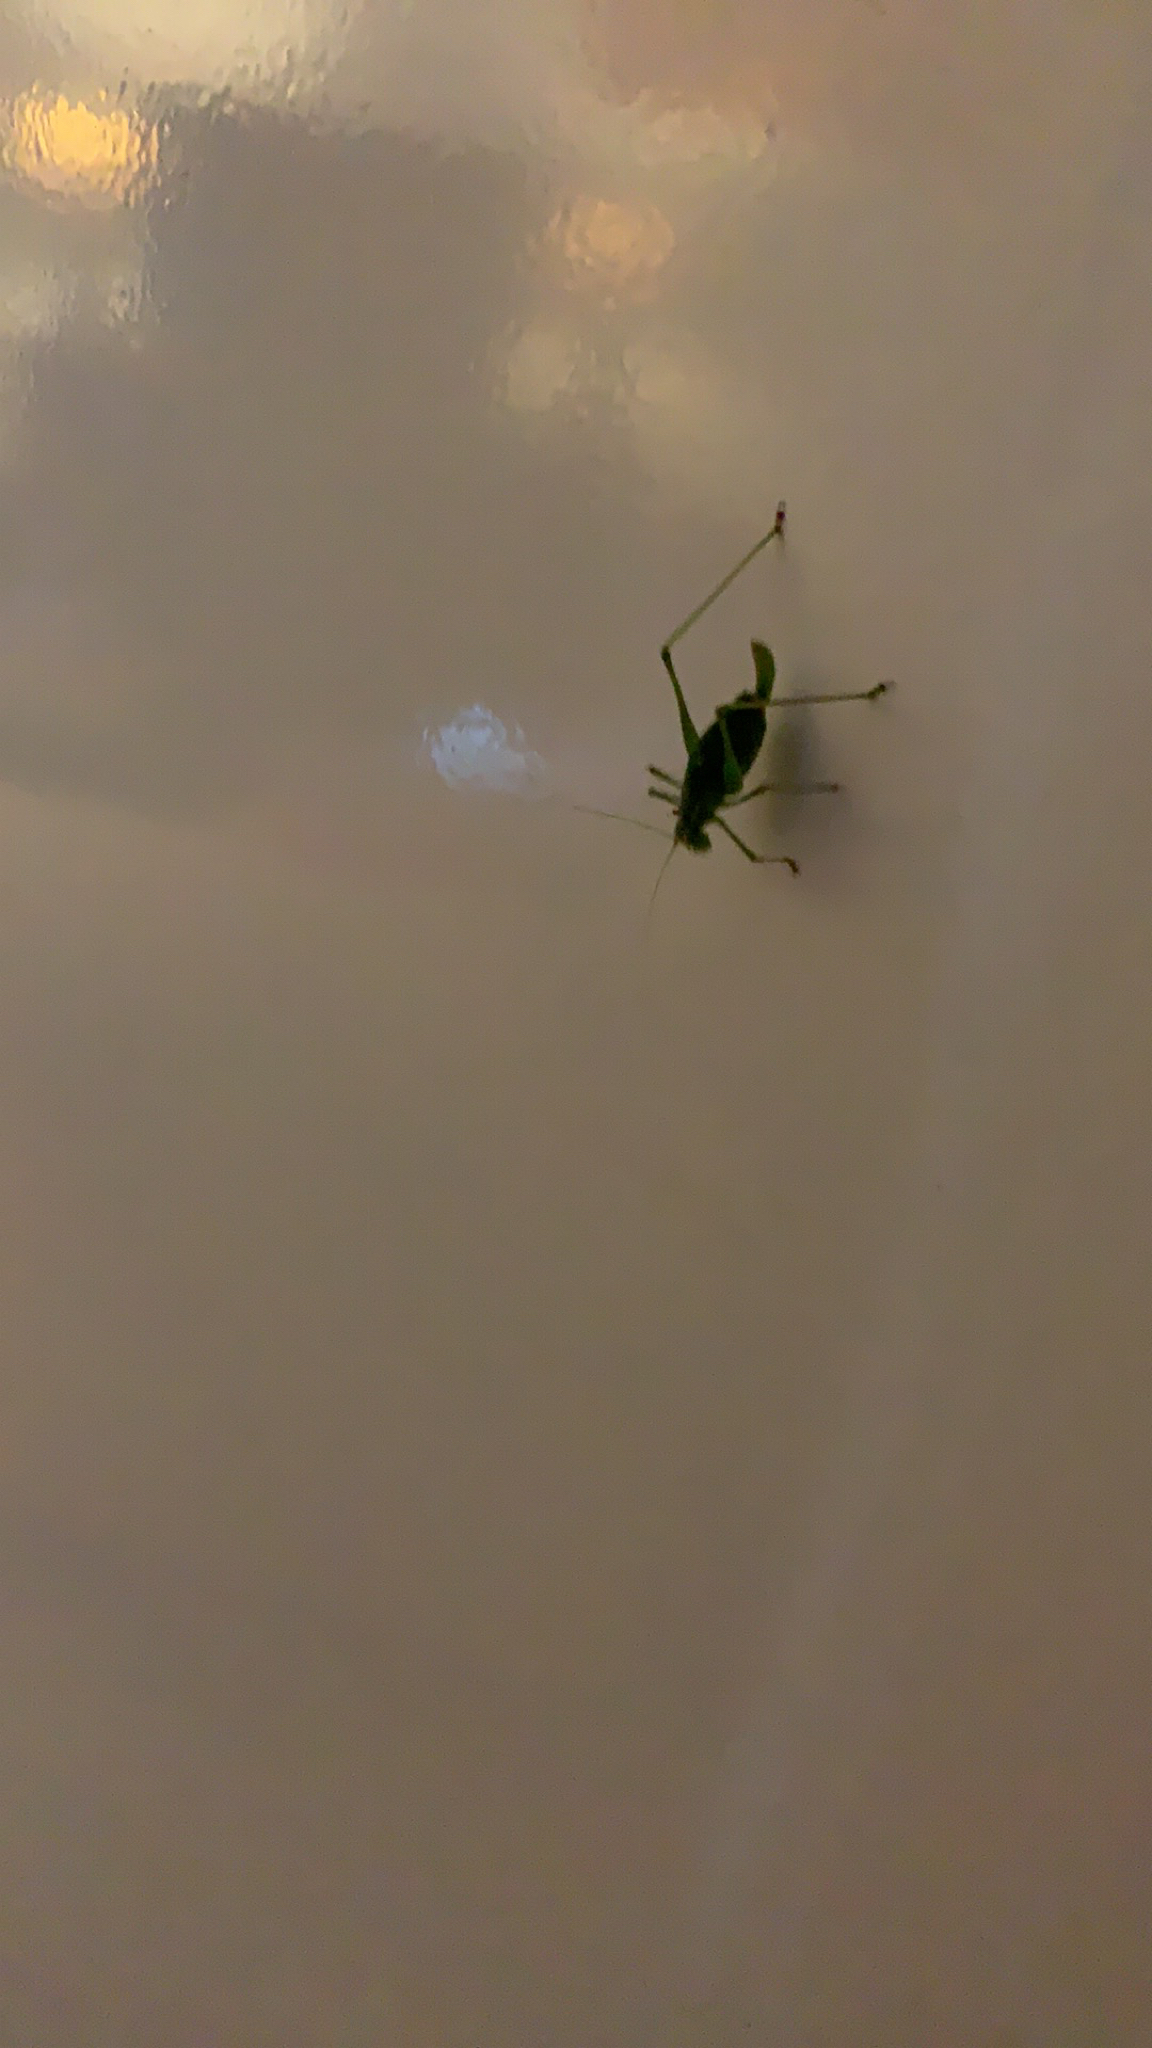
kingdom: Animalia
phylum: Arthropoda
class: Insecta
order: Orthoptera
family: Tettigoniidae
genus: Leptophyes
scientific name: Leptophyes punctatissima
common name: Speckled bush-cricket
